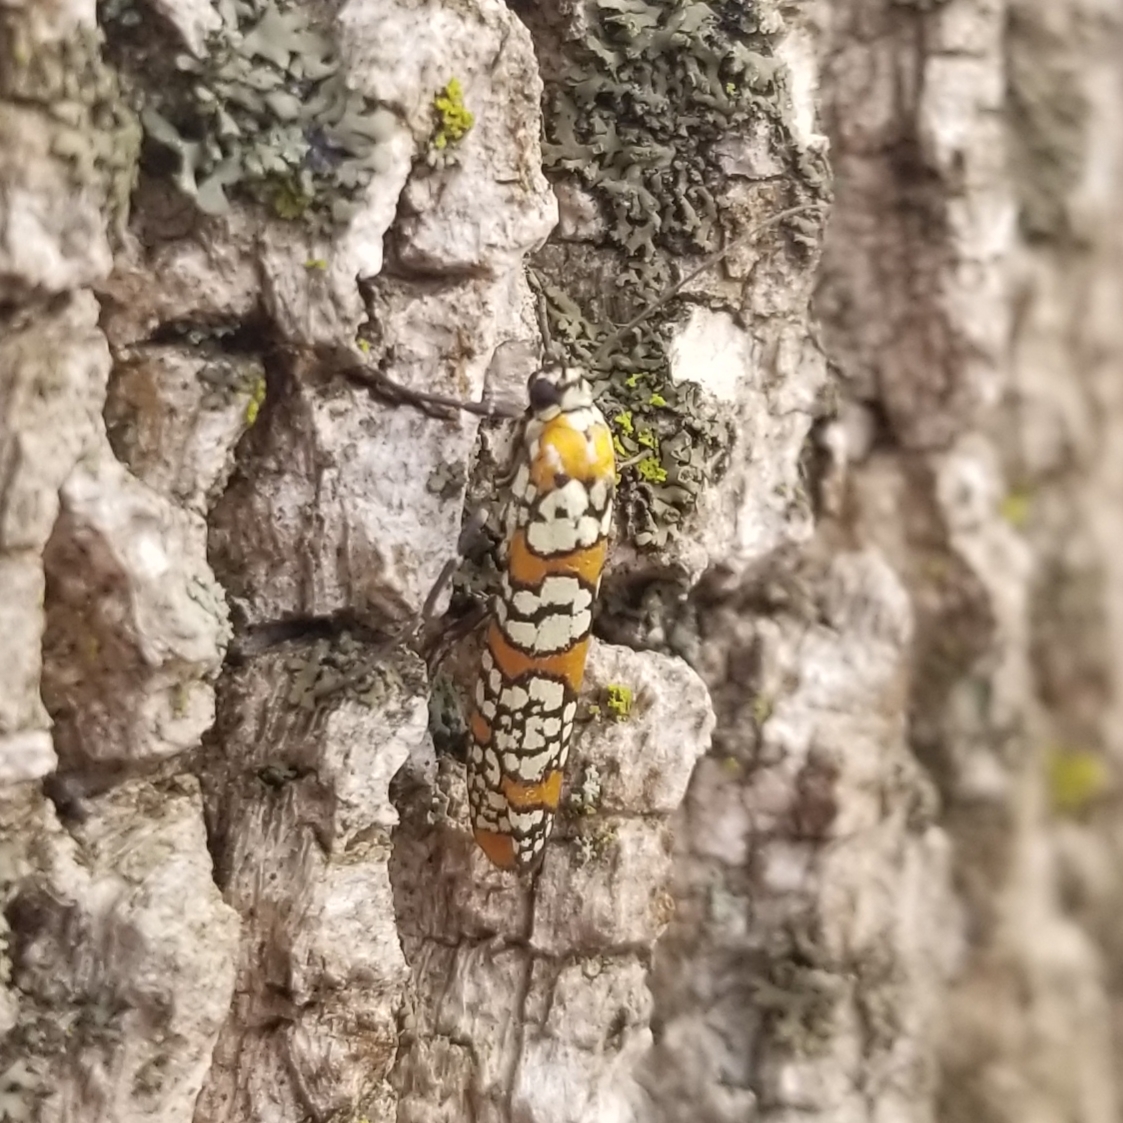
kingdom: Animalia
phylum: Arthropoda
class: Insecta
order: Lepidoptera
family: Attevidae
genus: Atteva
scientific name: Atteva punctella
